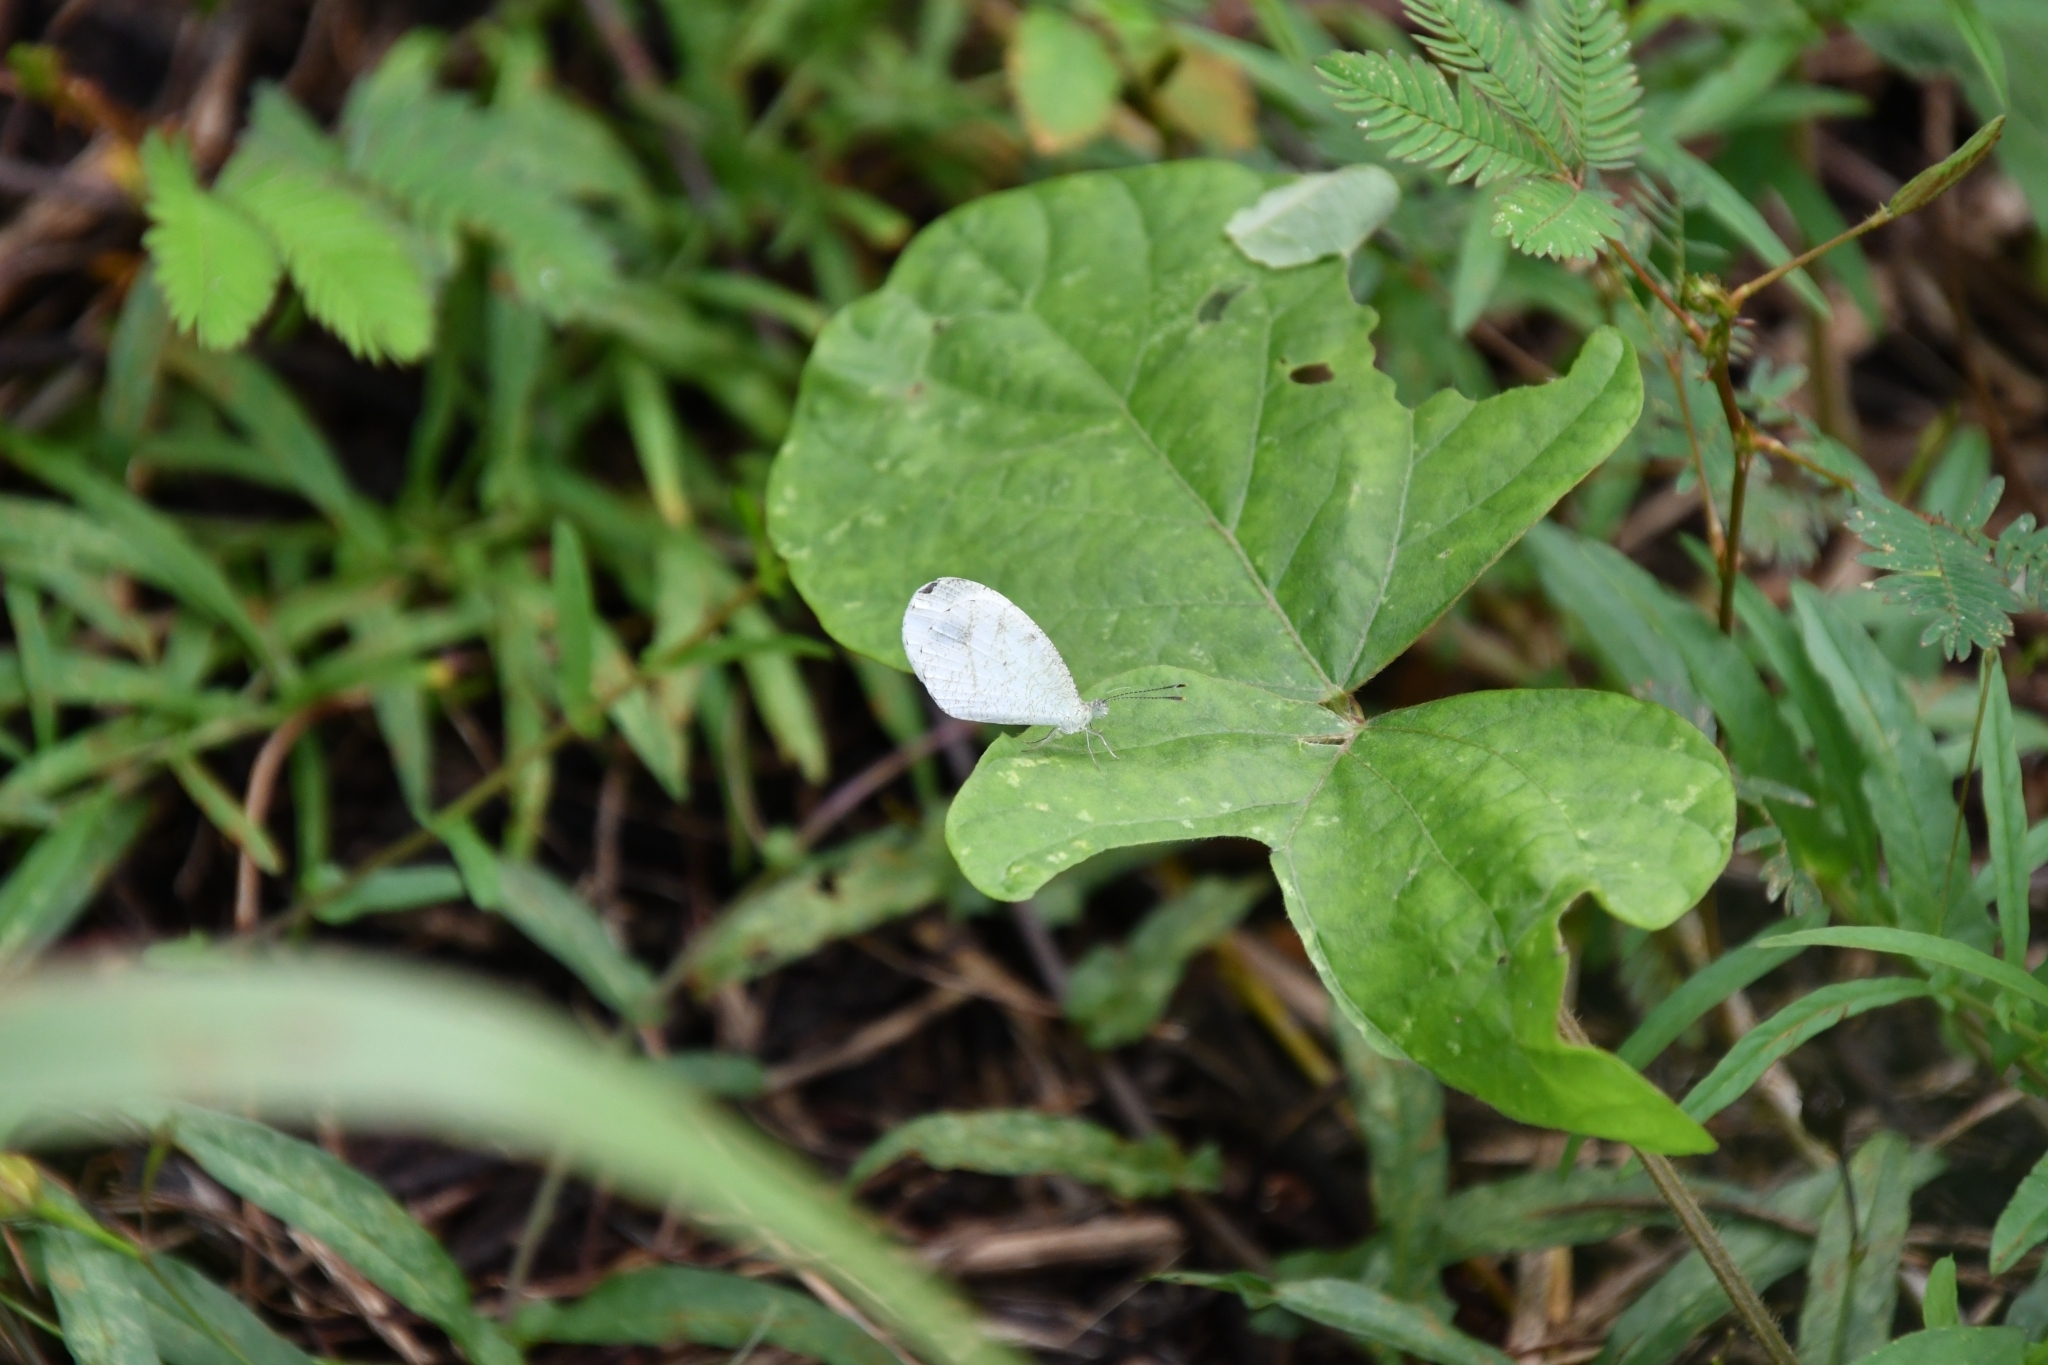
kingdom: Animalia
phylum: Arthropoda
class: Insecta
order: Lepidoptera
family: Pieridae
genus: Leptosia
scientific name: Leptosia nina
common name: Psyche
